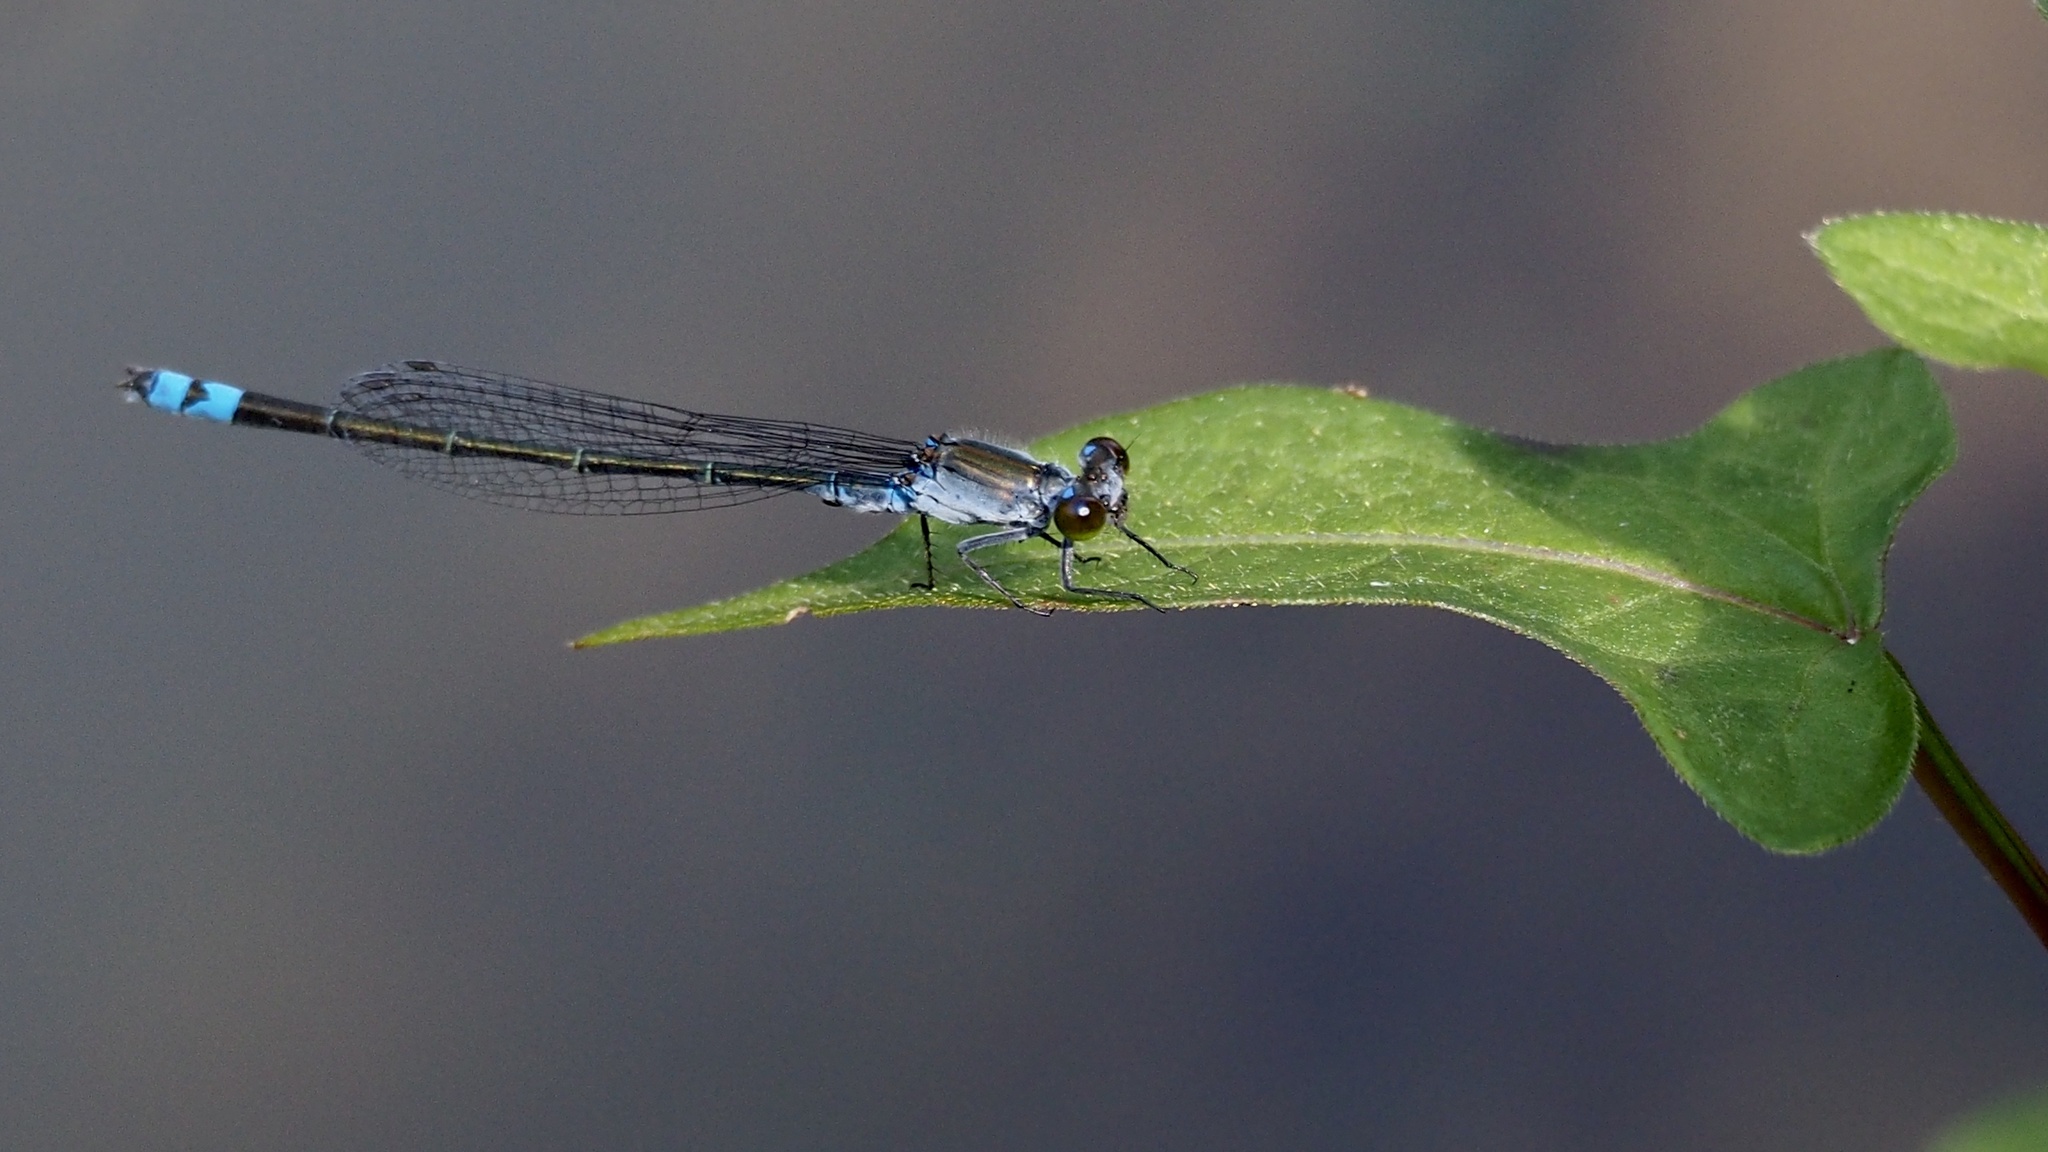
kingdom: Animalia
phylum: Arthropoda
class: Insecta
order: Odonata
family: Coenagrionidae
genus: Paracercion
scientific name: Paracercion calamorum
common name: Dusky lilysquatter
